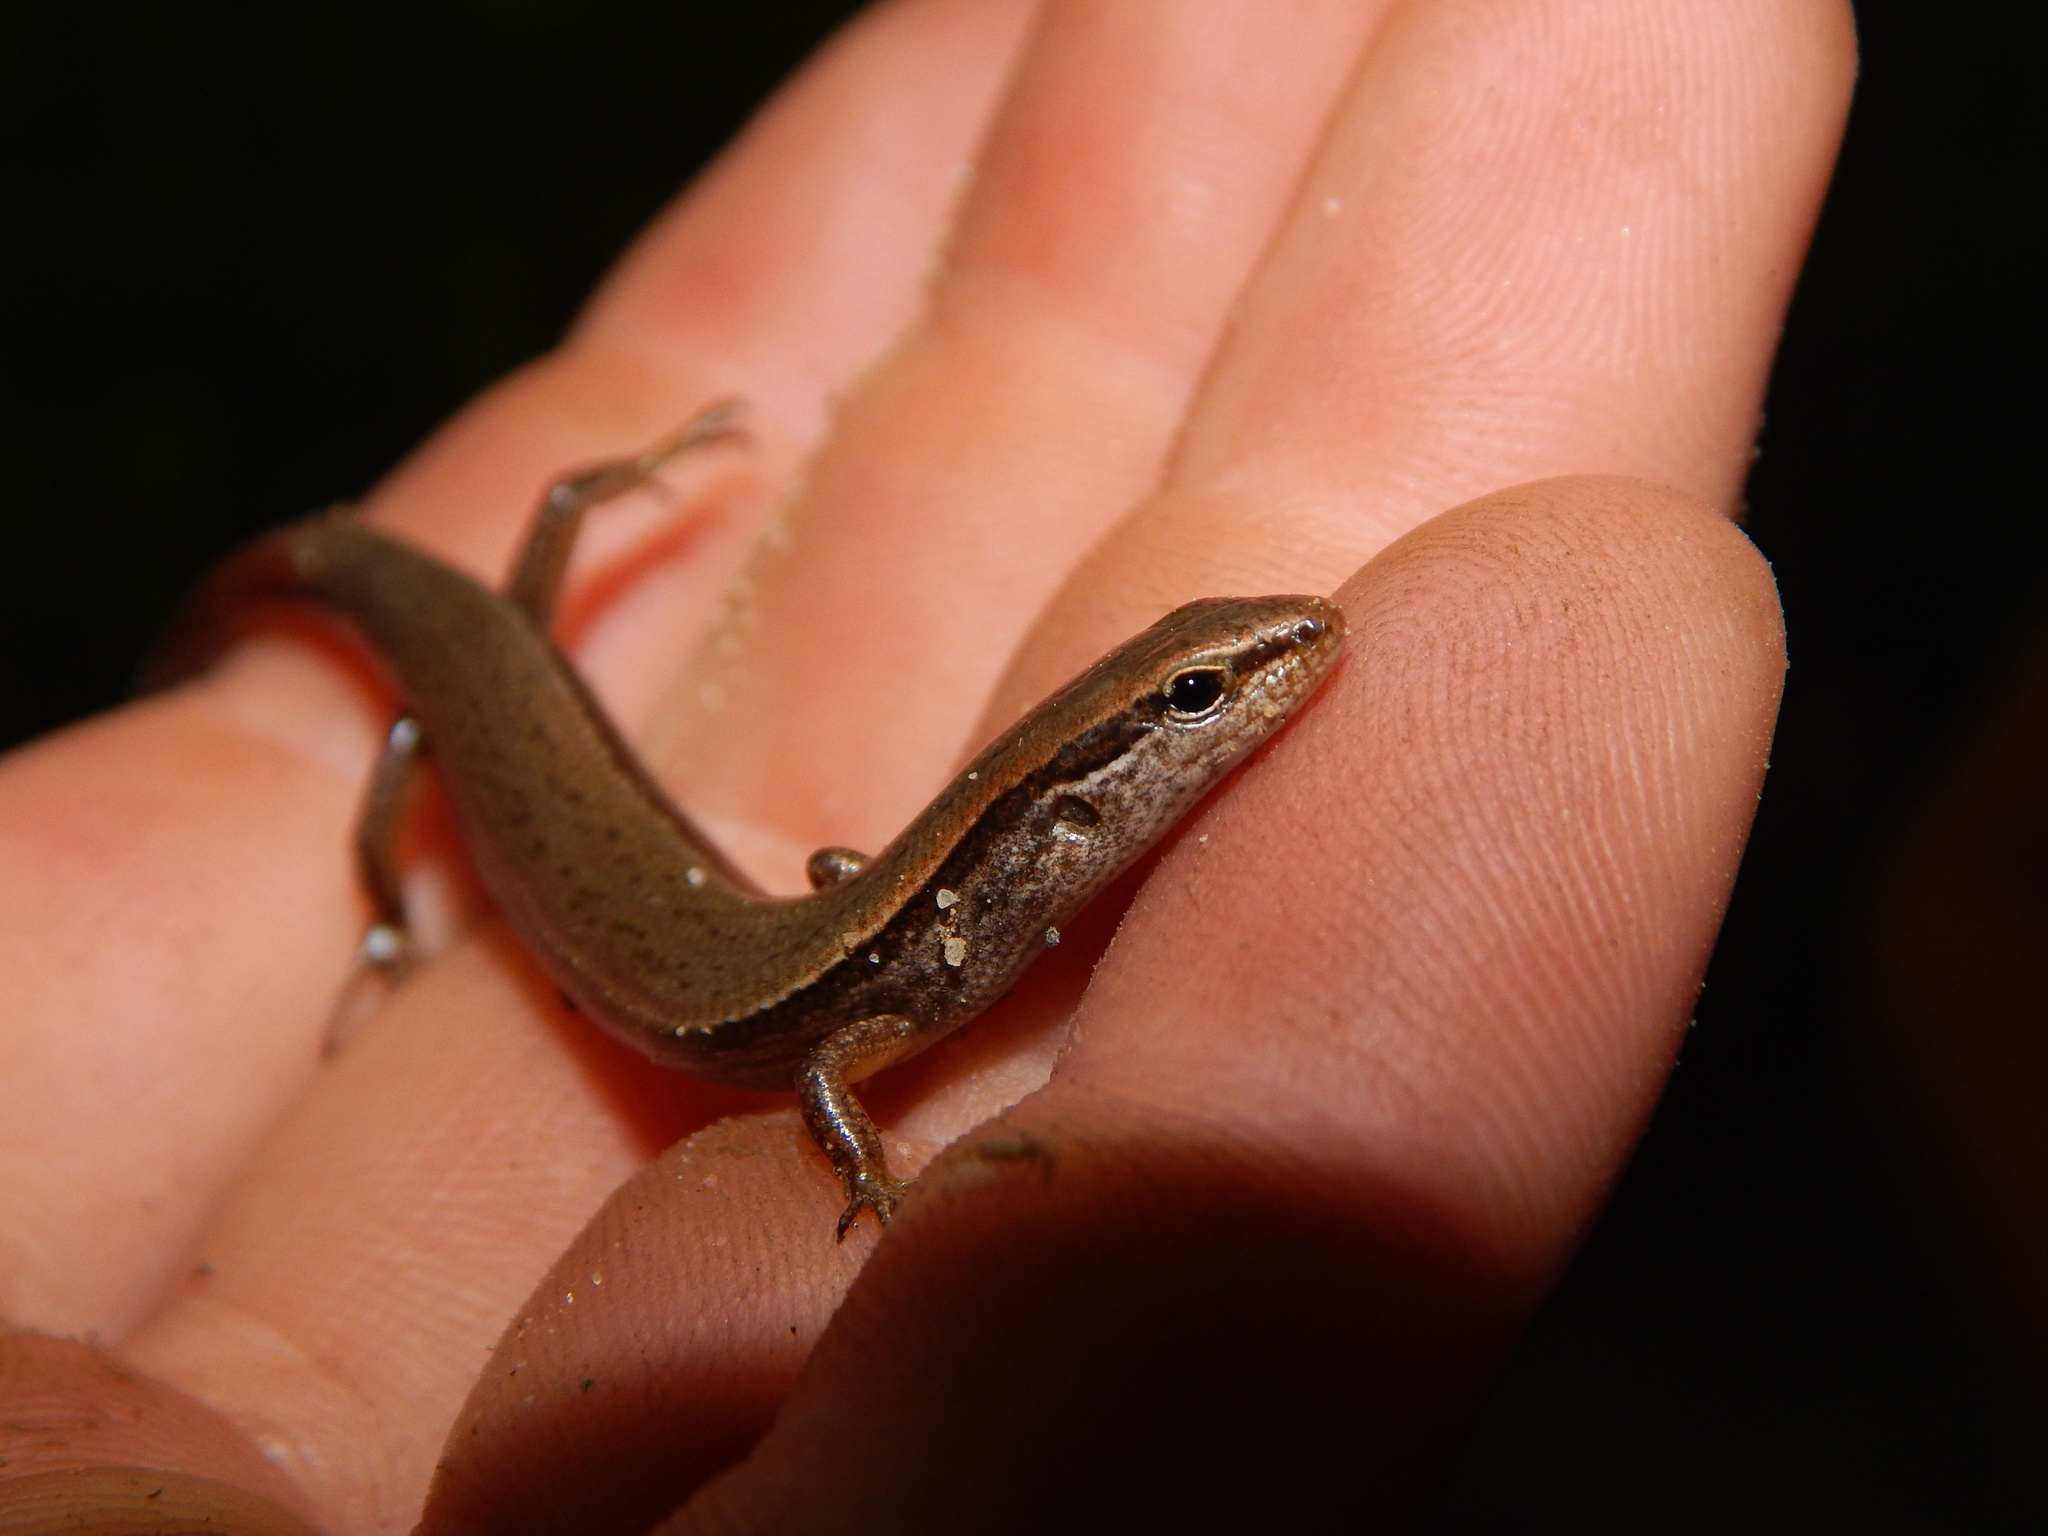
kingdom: Animalia
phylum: Chordata
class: Squamata
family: Scincidae
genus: Scincella
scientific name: Scincella lateralis
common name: Ground skink
